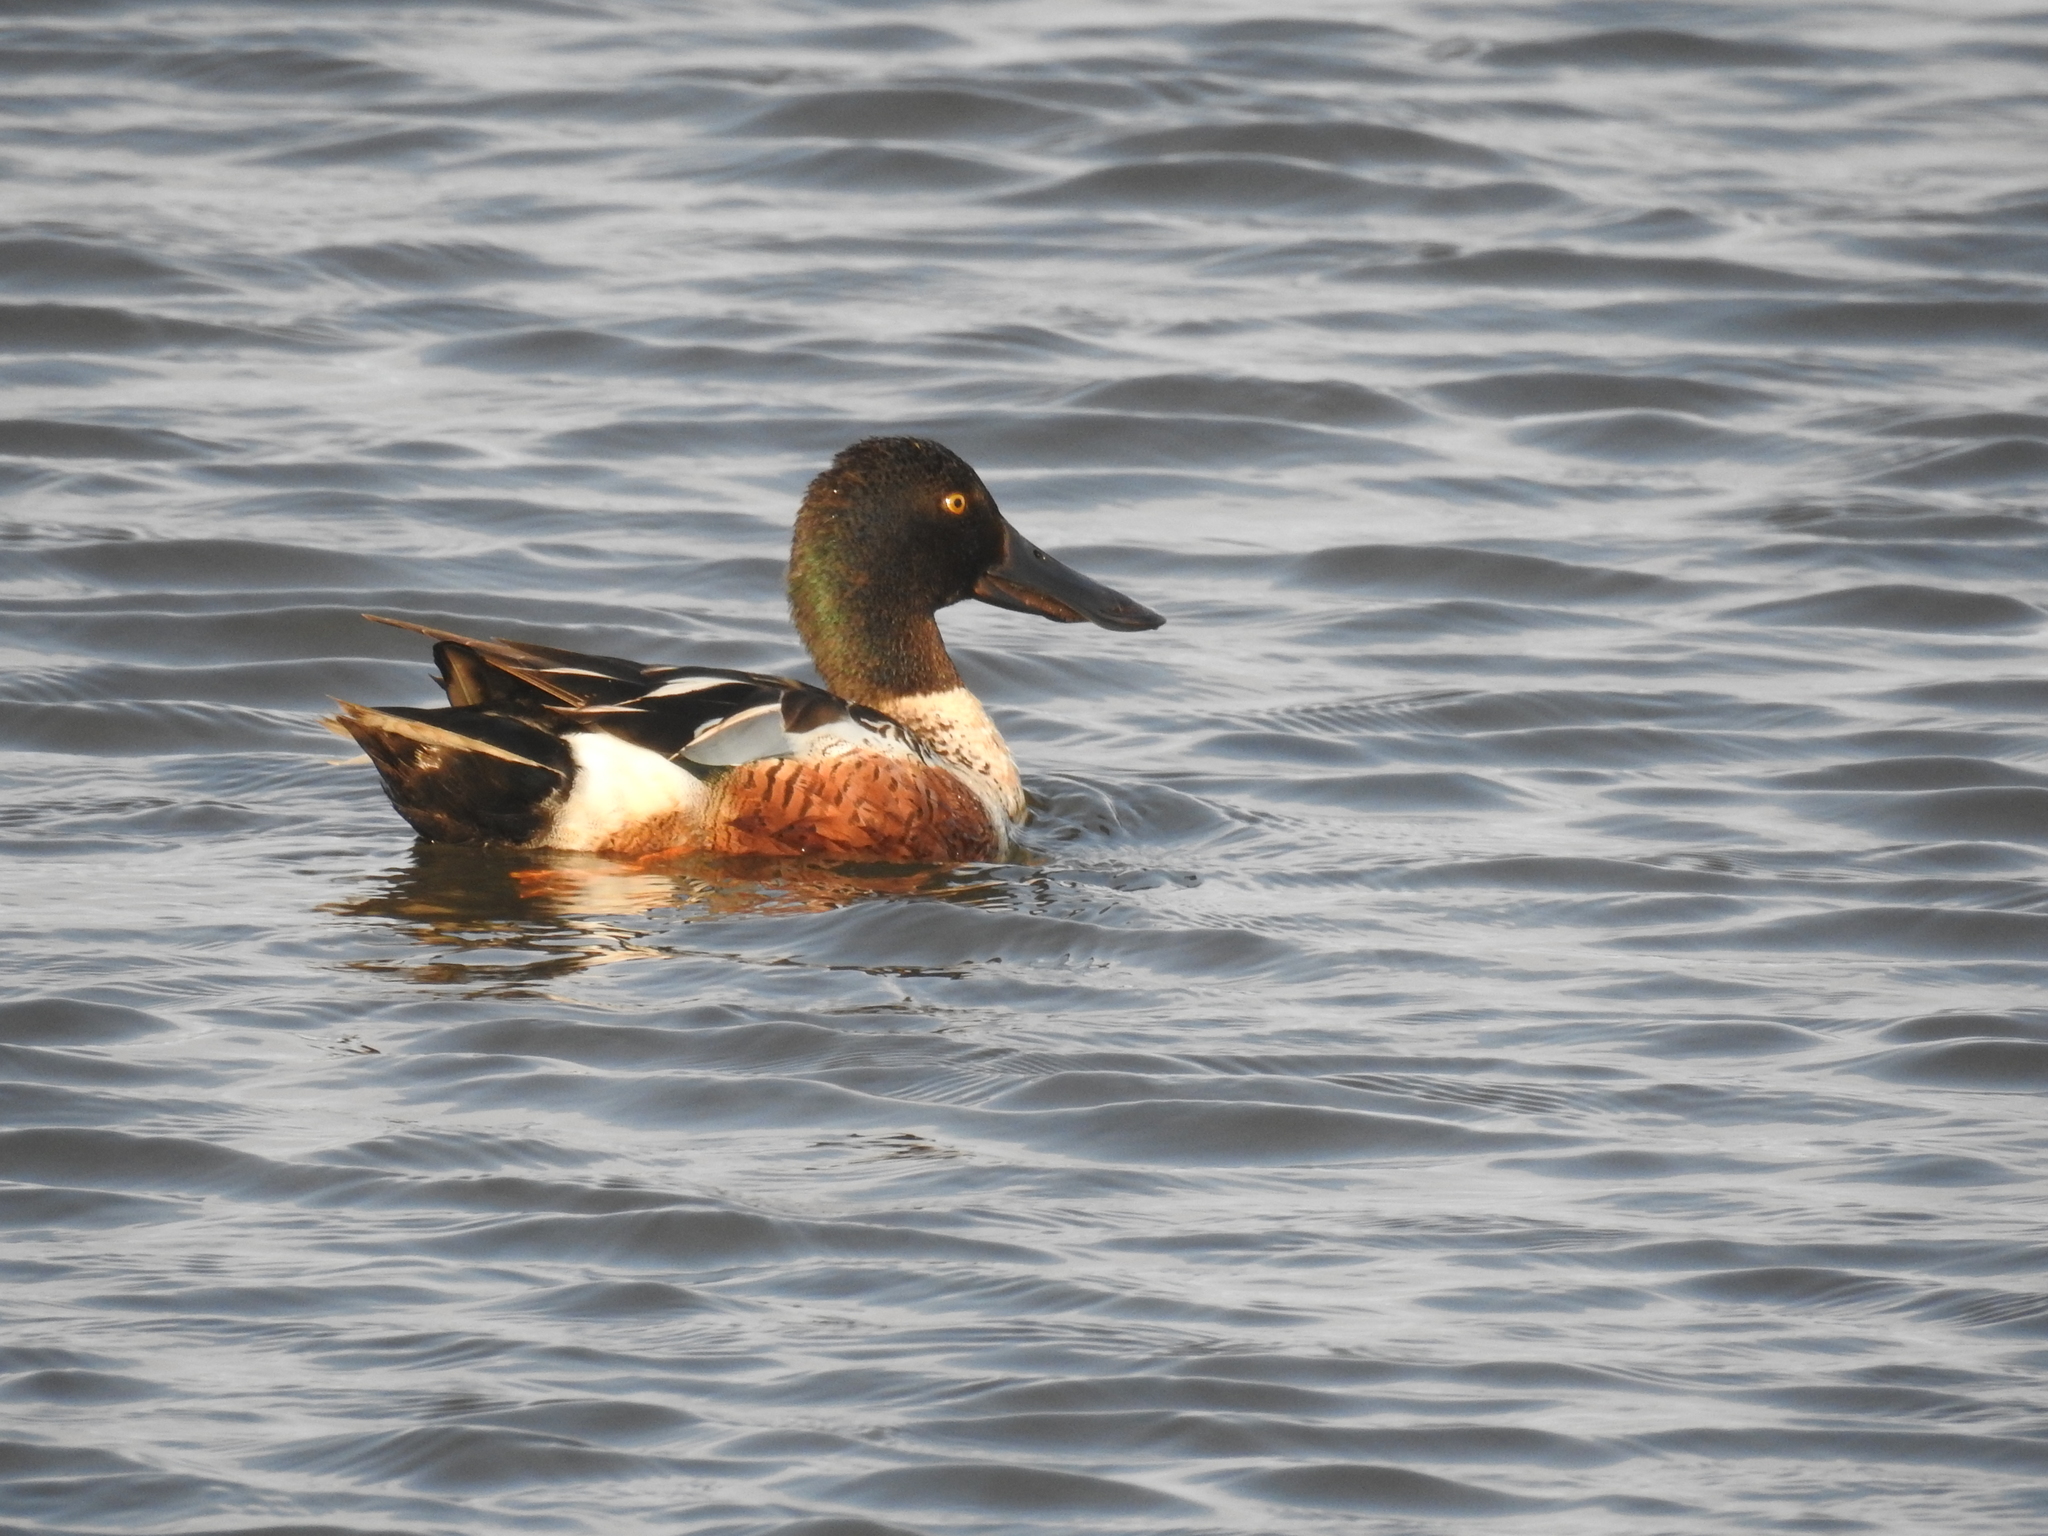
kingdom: Animalia
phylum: Chordata
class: Aves
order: Anseriformes
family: Anatidae
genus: Spatula
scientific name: Spatula clypeata
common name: Northern shoveler
